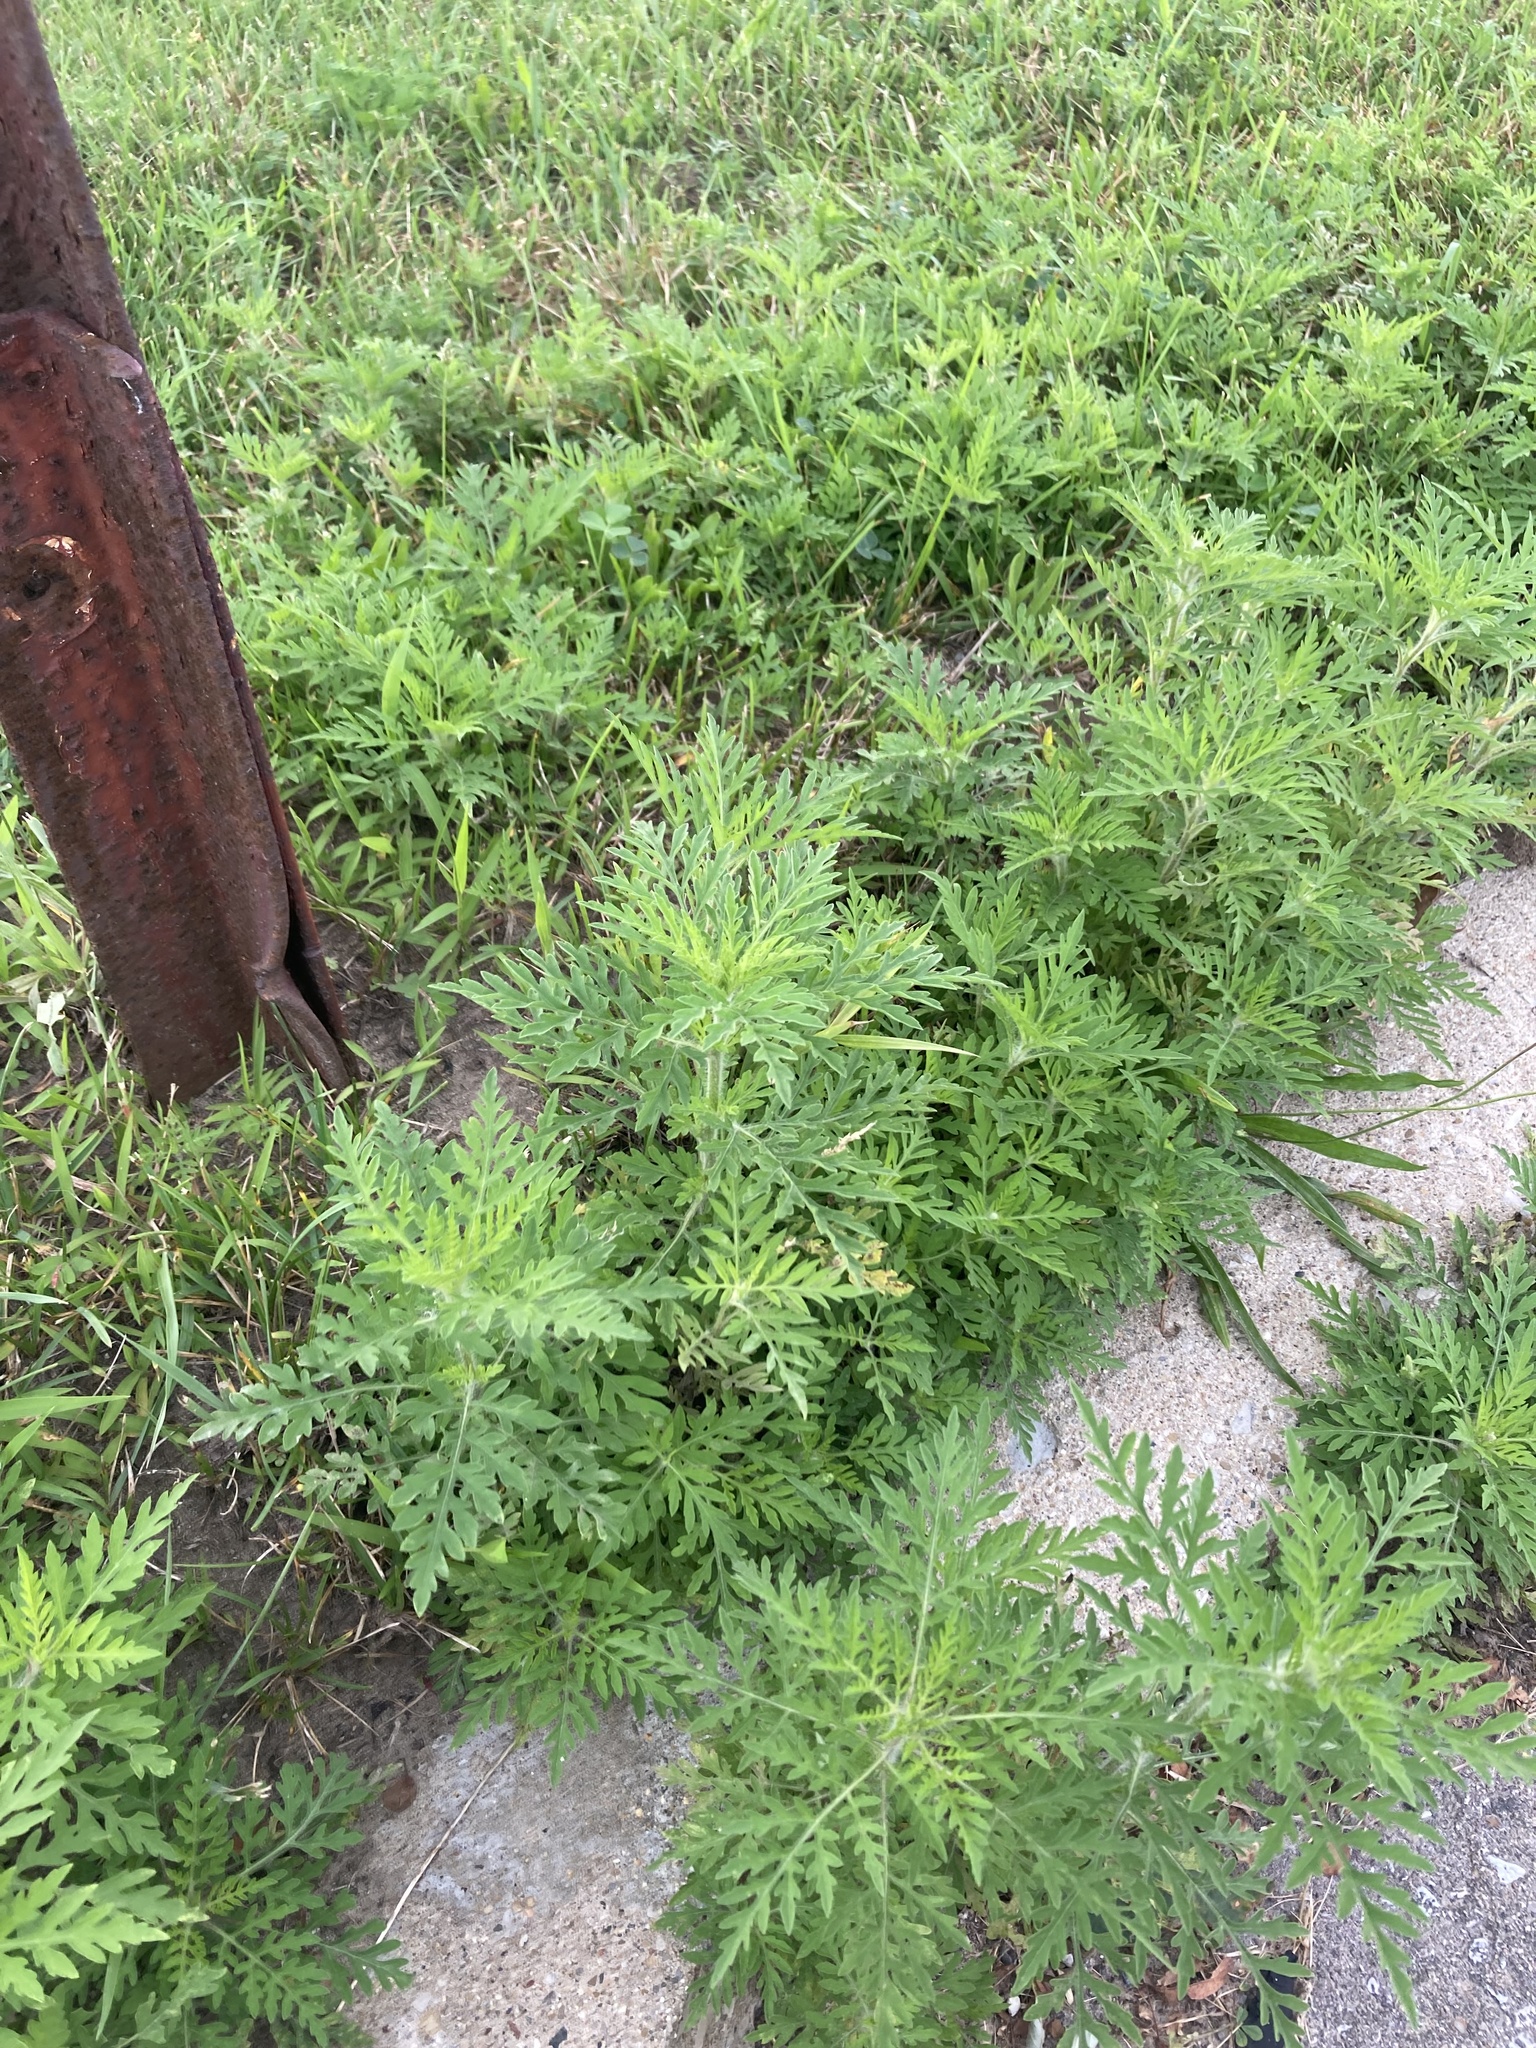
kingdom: Plantae
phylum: Tracheophyta
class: Magnoliopsida
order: Asterales
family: Asteraceae
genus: Ambrosia
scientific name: Ambrosia artemisiifolia
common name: Annual ragweed
